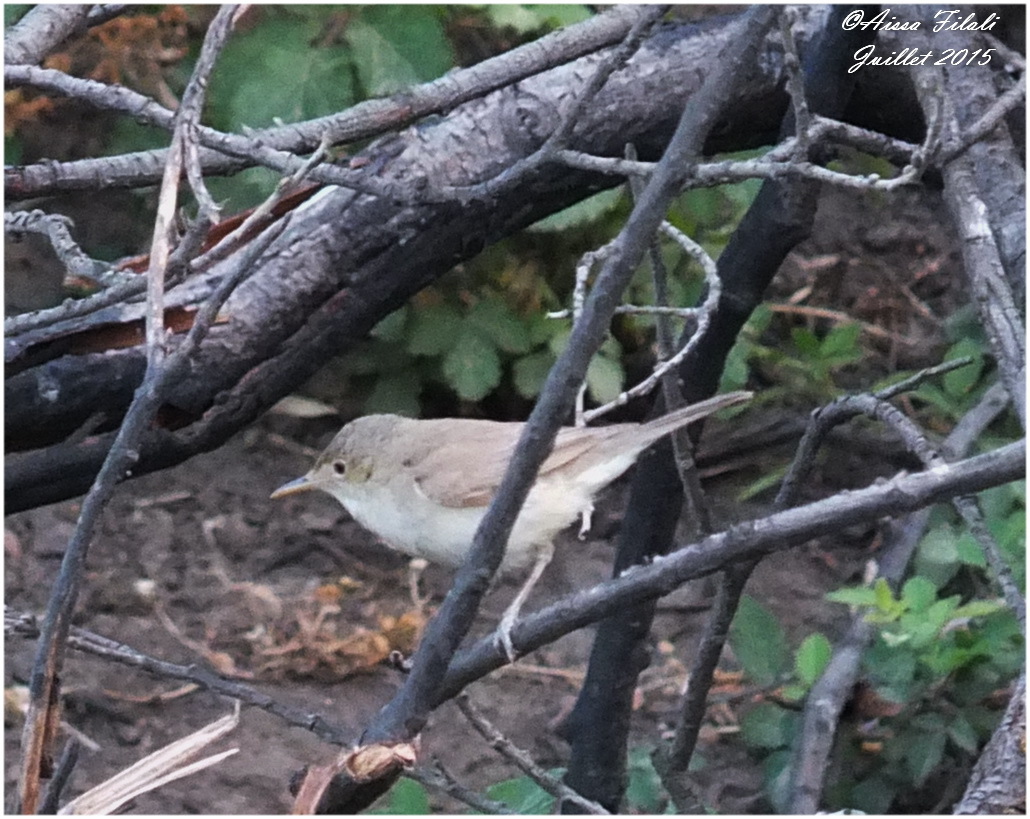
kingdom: Animalia
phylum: Chordata
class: Aves
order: Passeriformes
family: Acrocephalidae
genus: Iduna
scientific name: Iduna pallida
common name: Eastern olivaceous warbler
